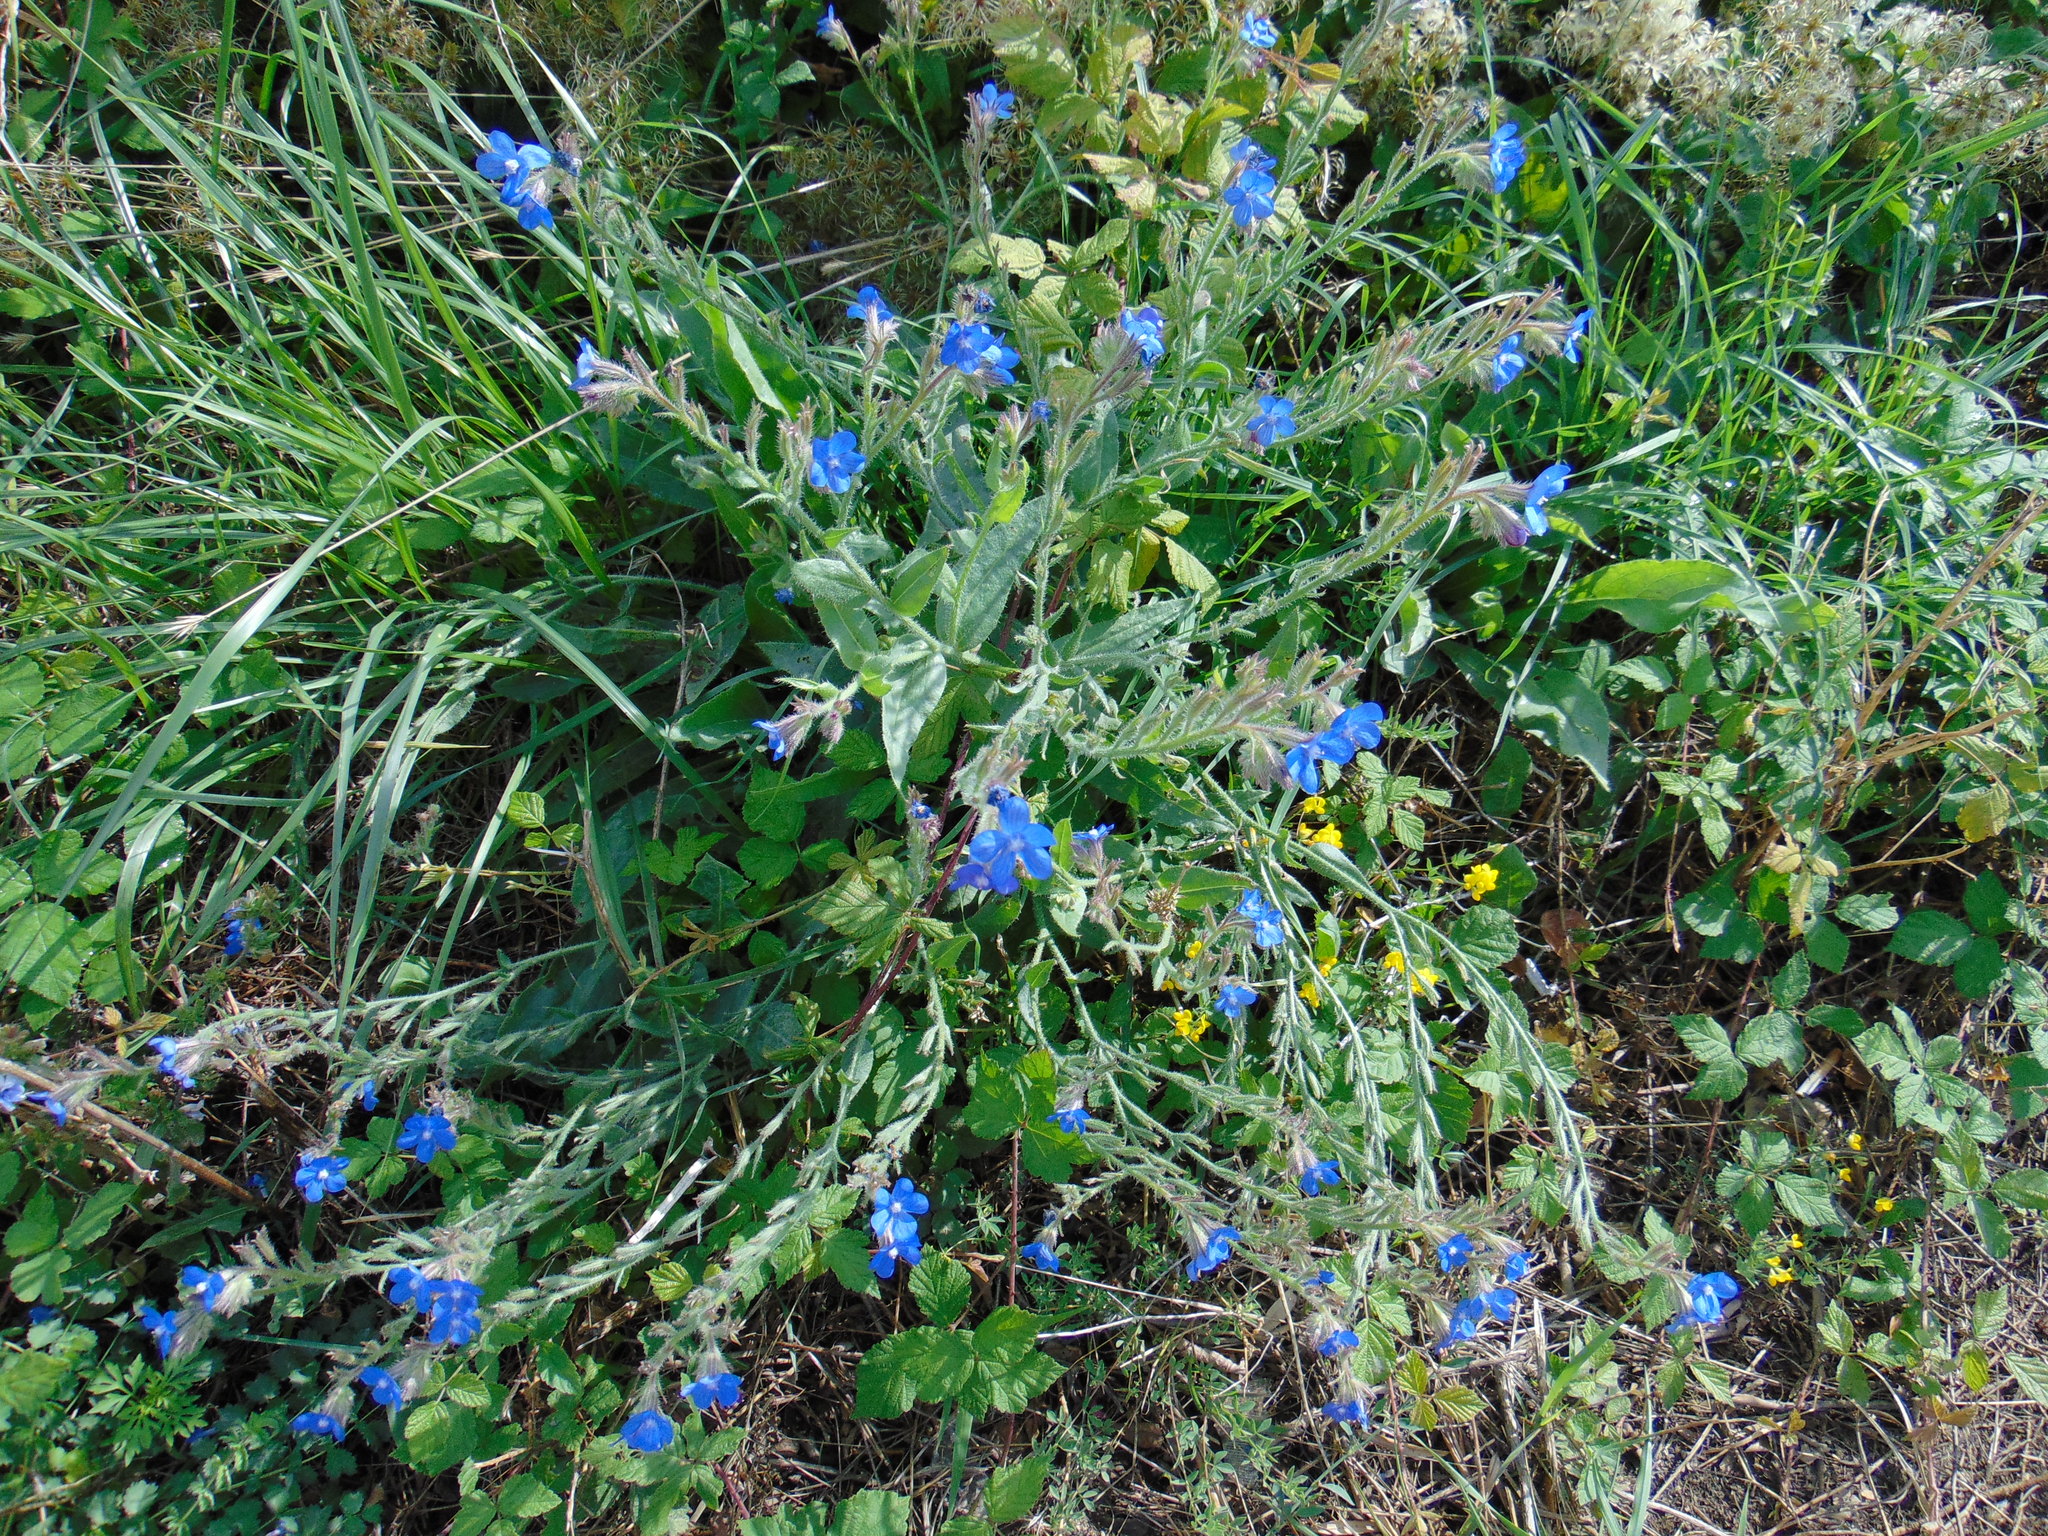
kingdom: Plantae
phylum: Tracheophyta
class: Magnoliopsida
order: Boraginales
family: Boraginaceae
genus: Anchusa
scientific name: Anchusa azurea
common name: Garden anchusa
